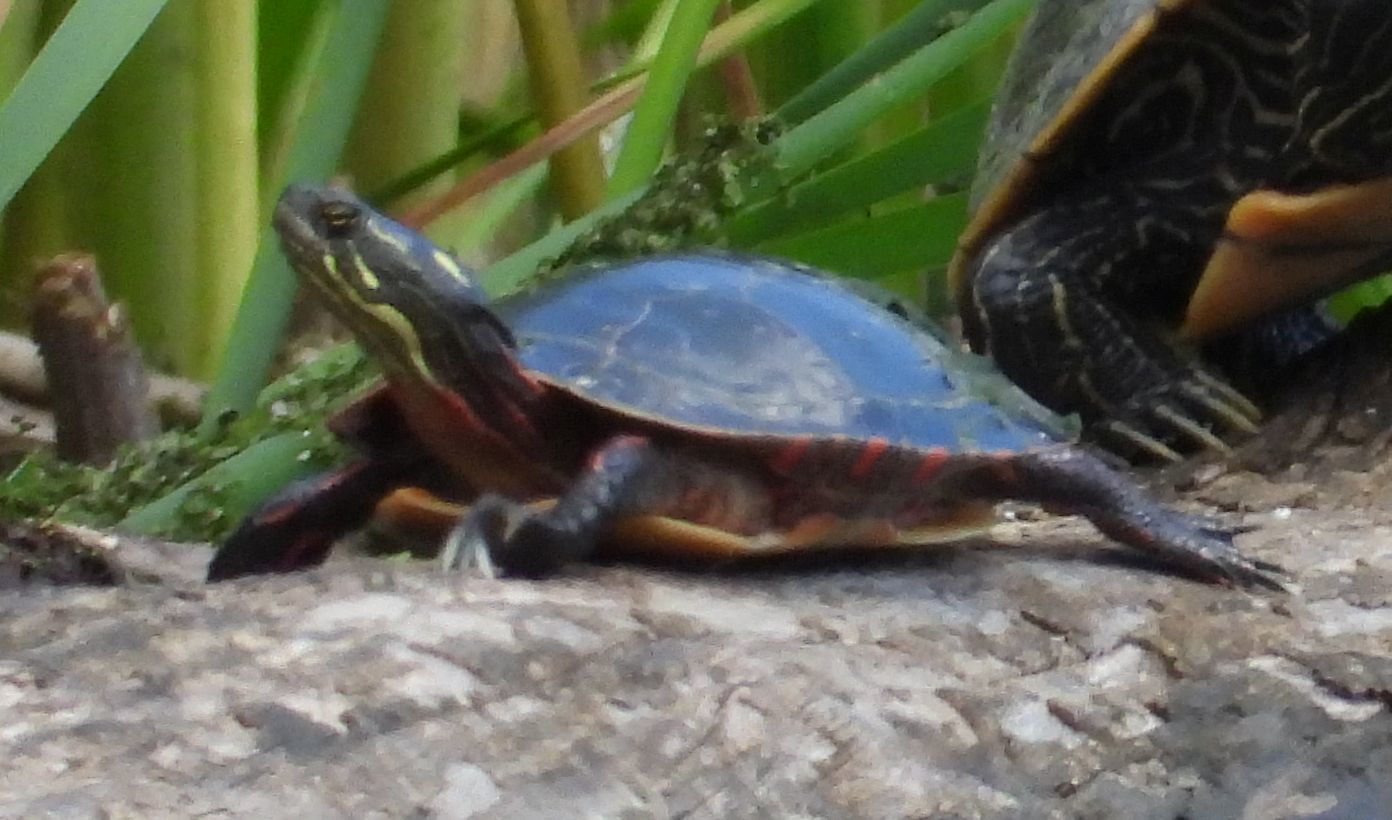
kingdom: Animalia
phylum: Chordata
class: Testudines
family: Emydidae
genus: Chrysemys
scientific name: Chrysemys picta
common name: Painted turtle
